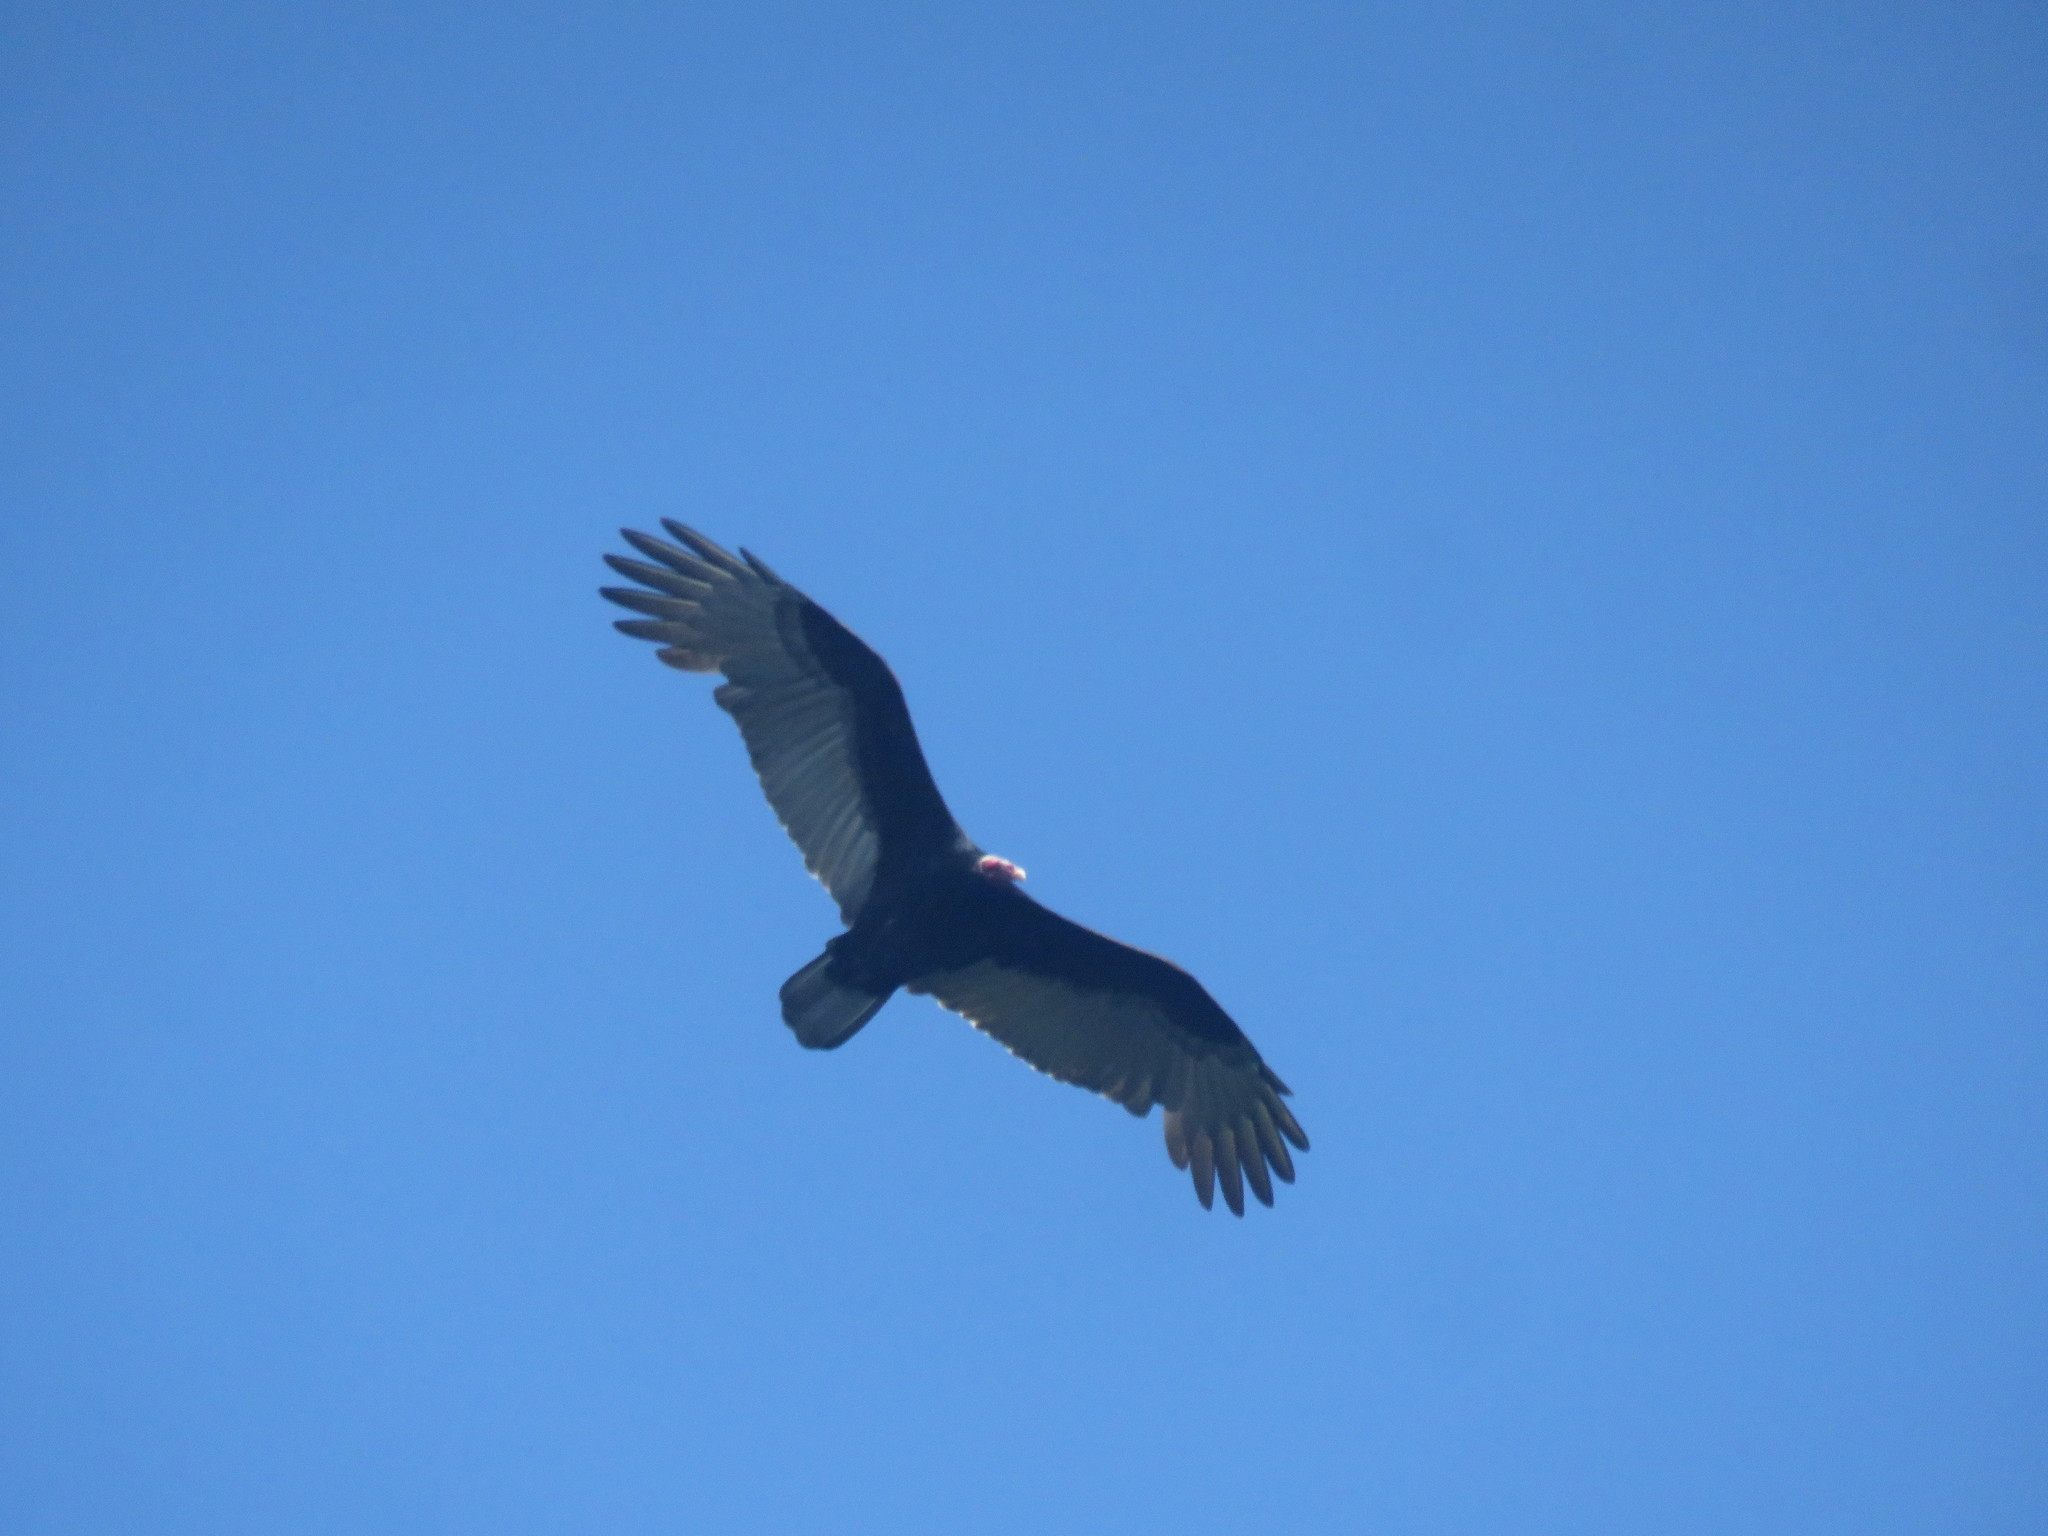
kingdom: Animalia
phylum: Chordata
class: Aves
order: Accipitriformes
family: Cathartidae
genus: Cathartes
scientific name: Cathartes aura
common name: Turkey vulture
